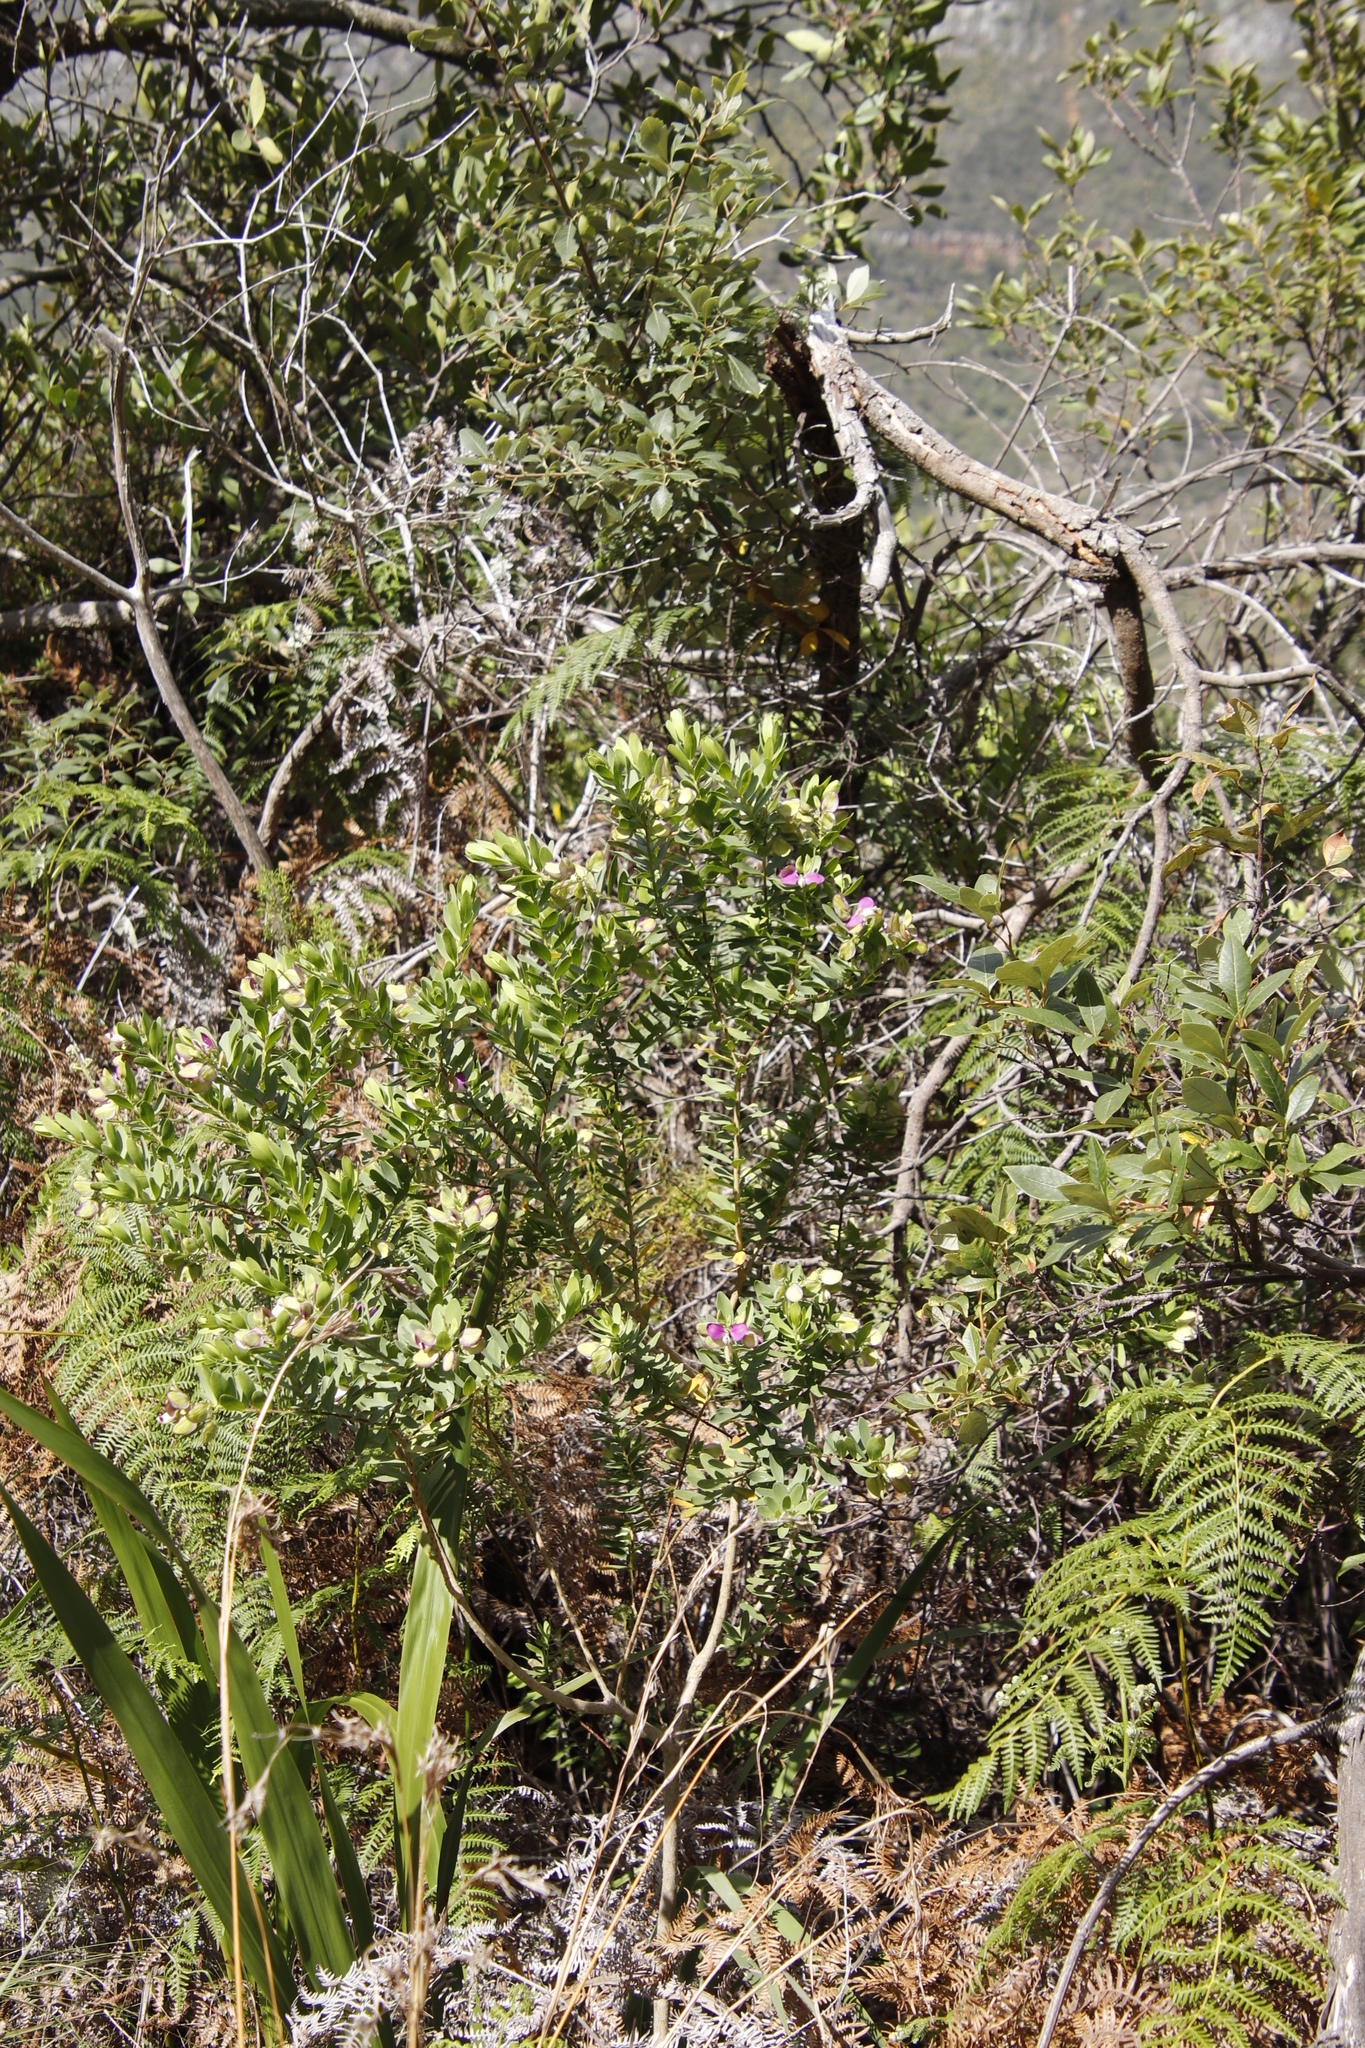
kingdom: Plantae
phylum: Tracheophyta
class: Magnoliopsida
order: Fabales
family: Polygalaceae
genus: Polygala
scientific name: Polygala myrtifolia
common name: Myrtle-leaf milkwort
